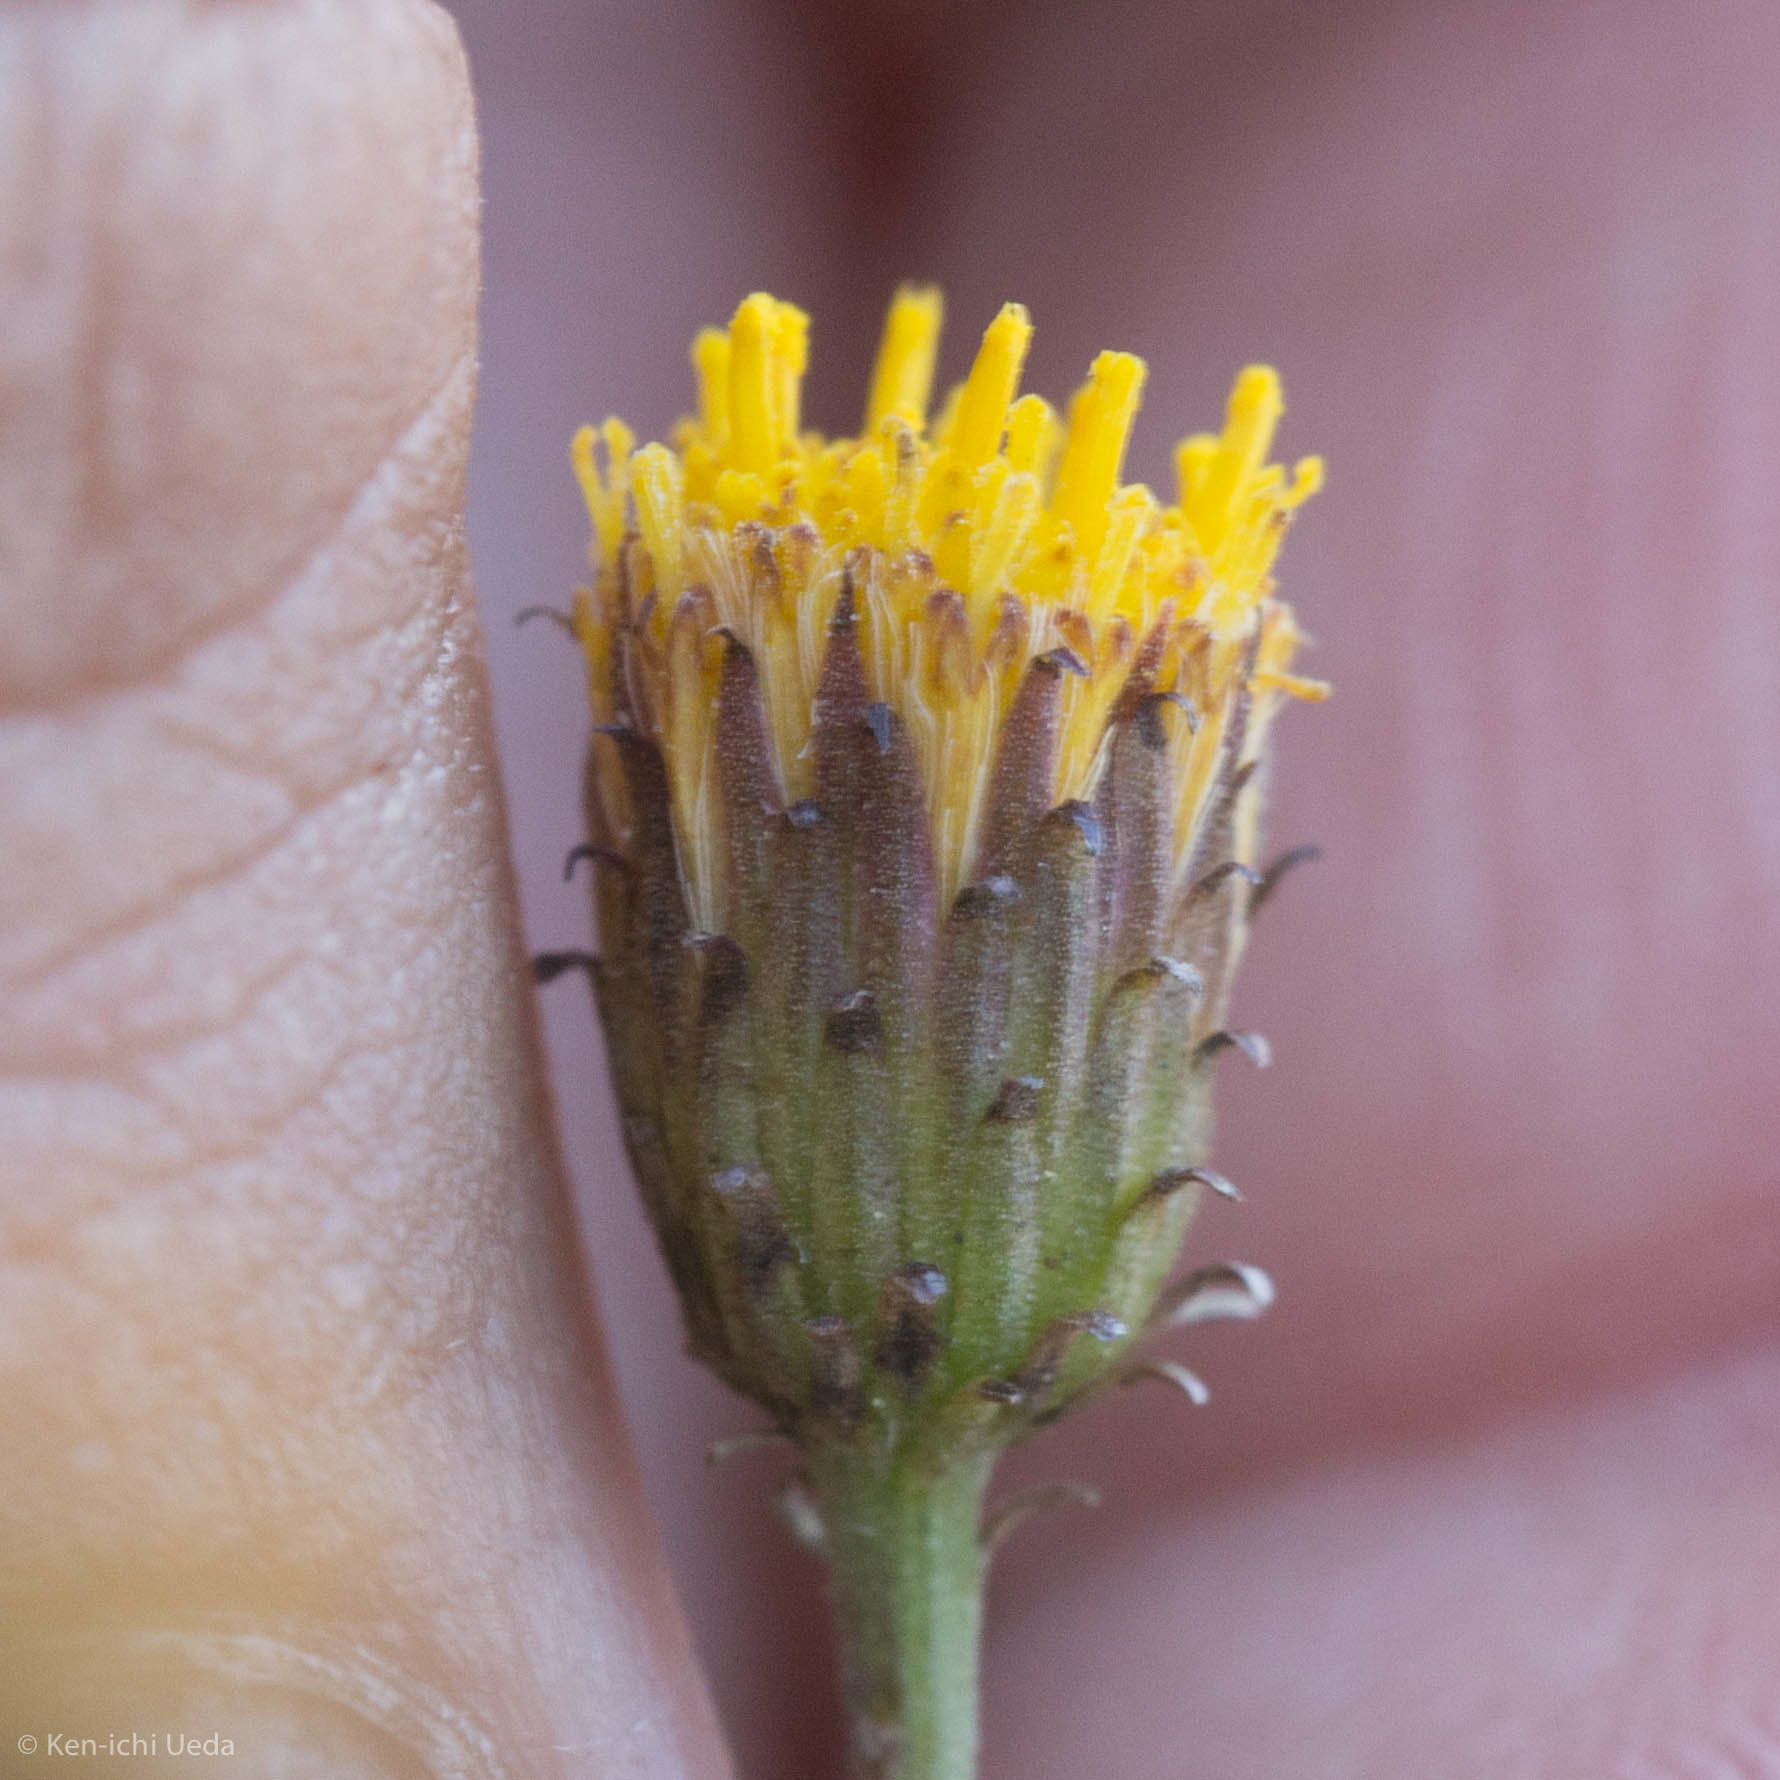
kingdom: Plantae
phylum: Tracheophyta
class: Magnoliopsida
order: Asterales
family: Asteraceae
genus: Erigeron
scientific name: Erigeron petrophilus
